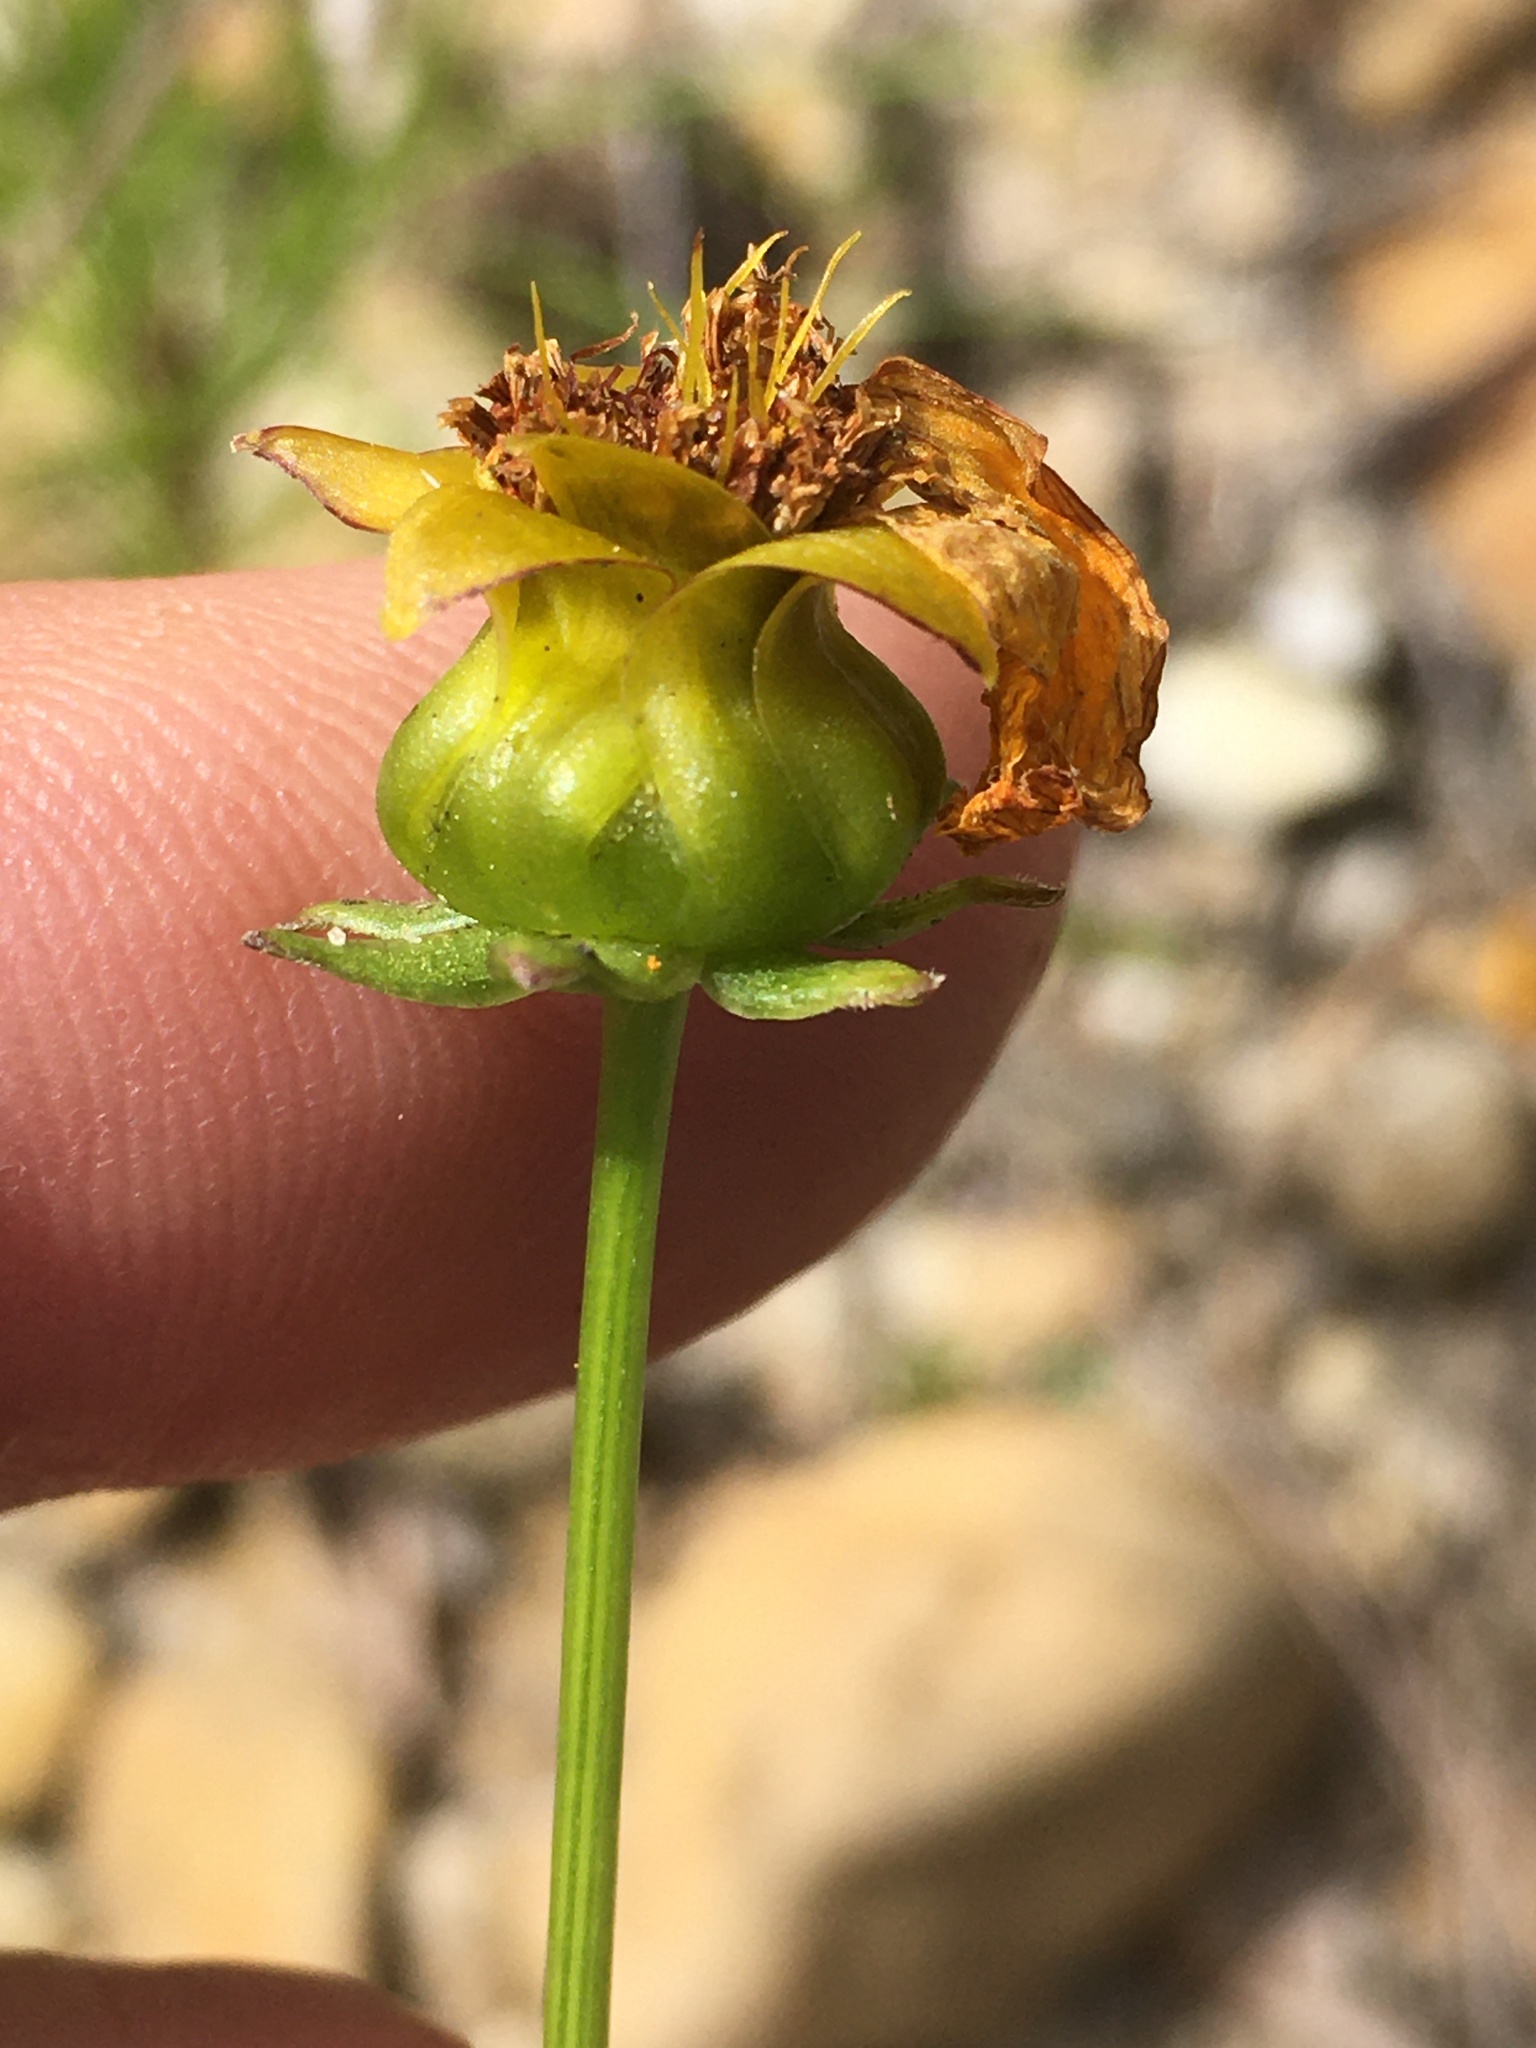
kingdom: Plantae
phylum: Tracheophyta
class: Magnoliopsida
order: Asterales
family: Asteraceae
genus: Coreopsis
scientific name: Coreopsis lanceolata
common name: Garden coreopsis
